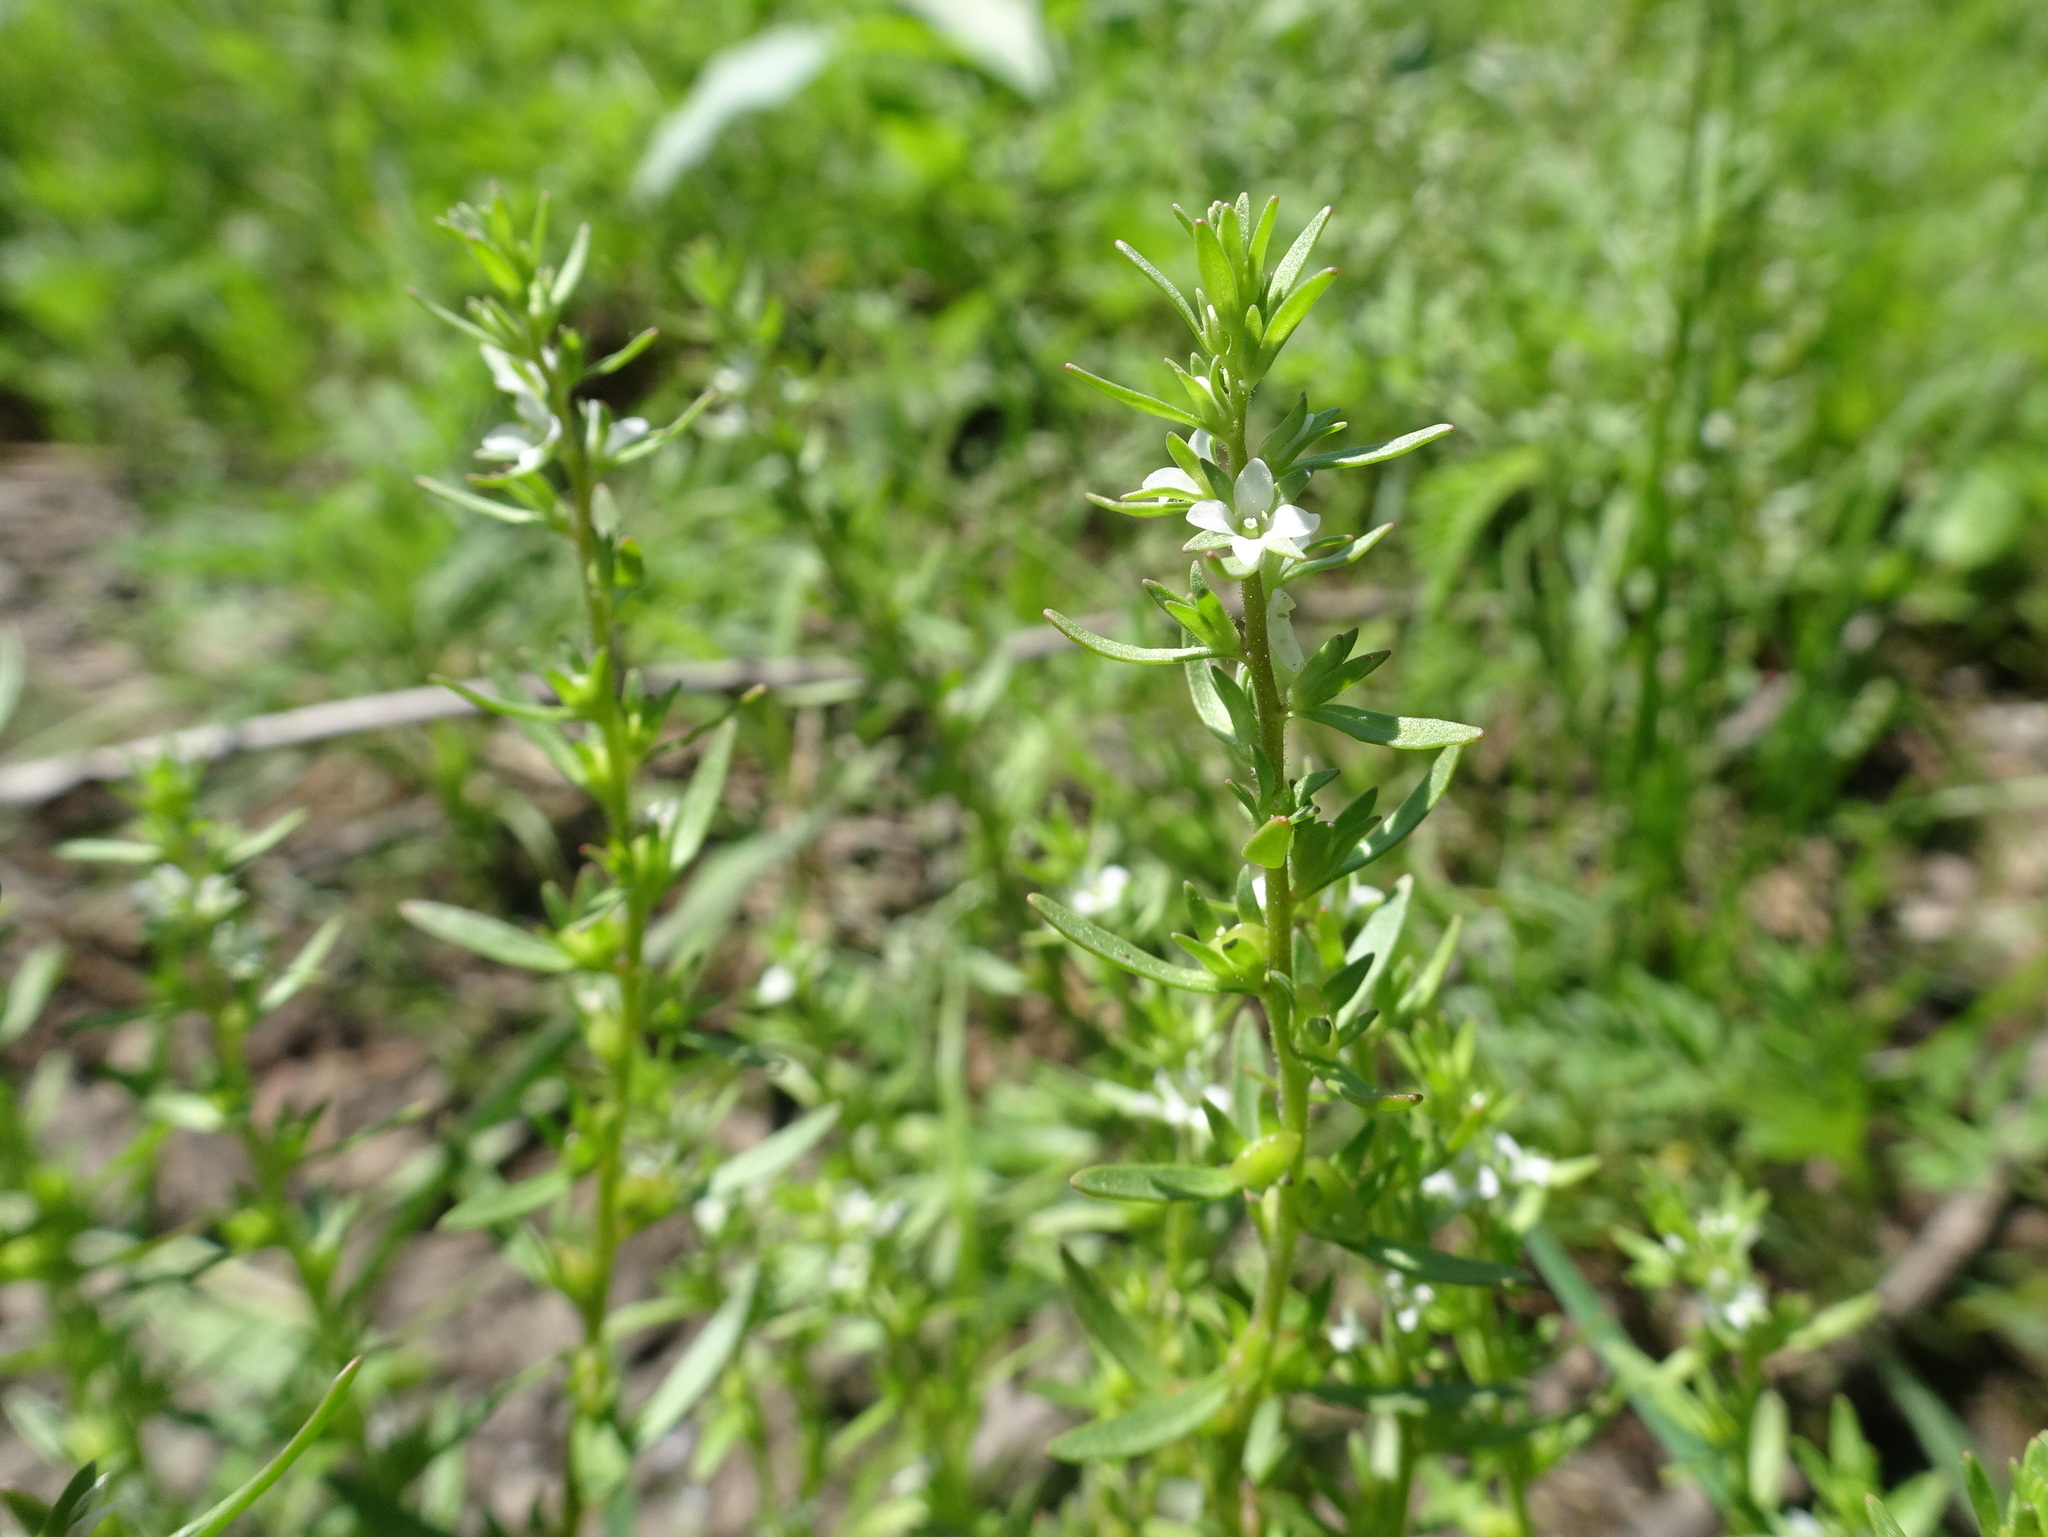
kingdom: Plantae
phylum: Tracheophyta
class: Magnoliopsida
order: Lamiales
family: Plantaginaceae
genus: Veronica
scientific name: Veronica peregrina
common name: Neckweed
